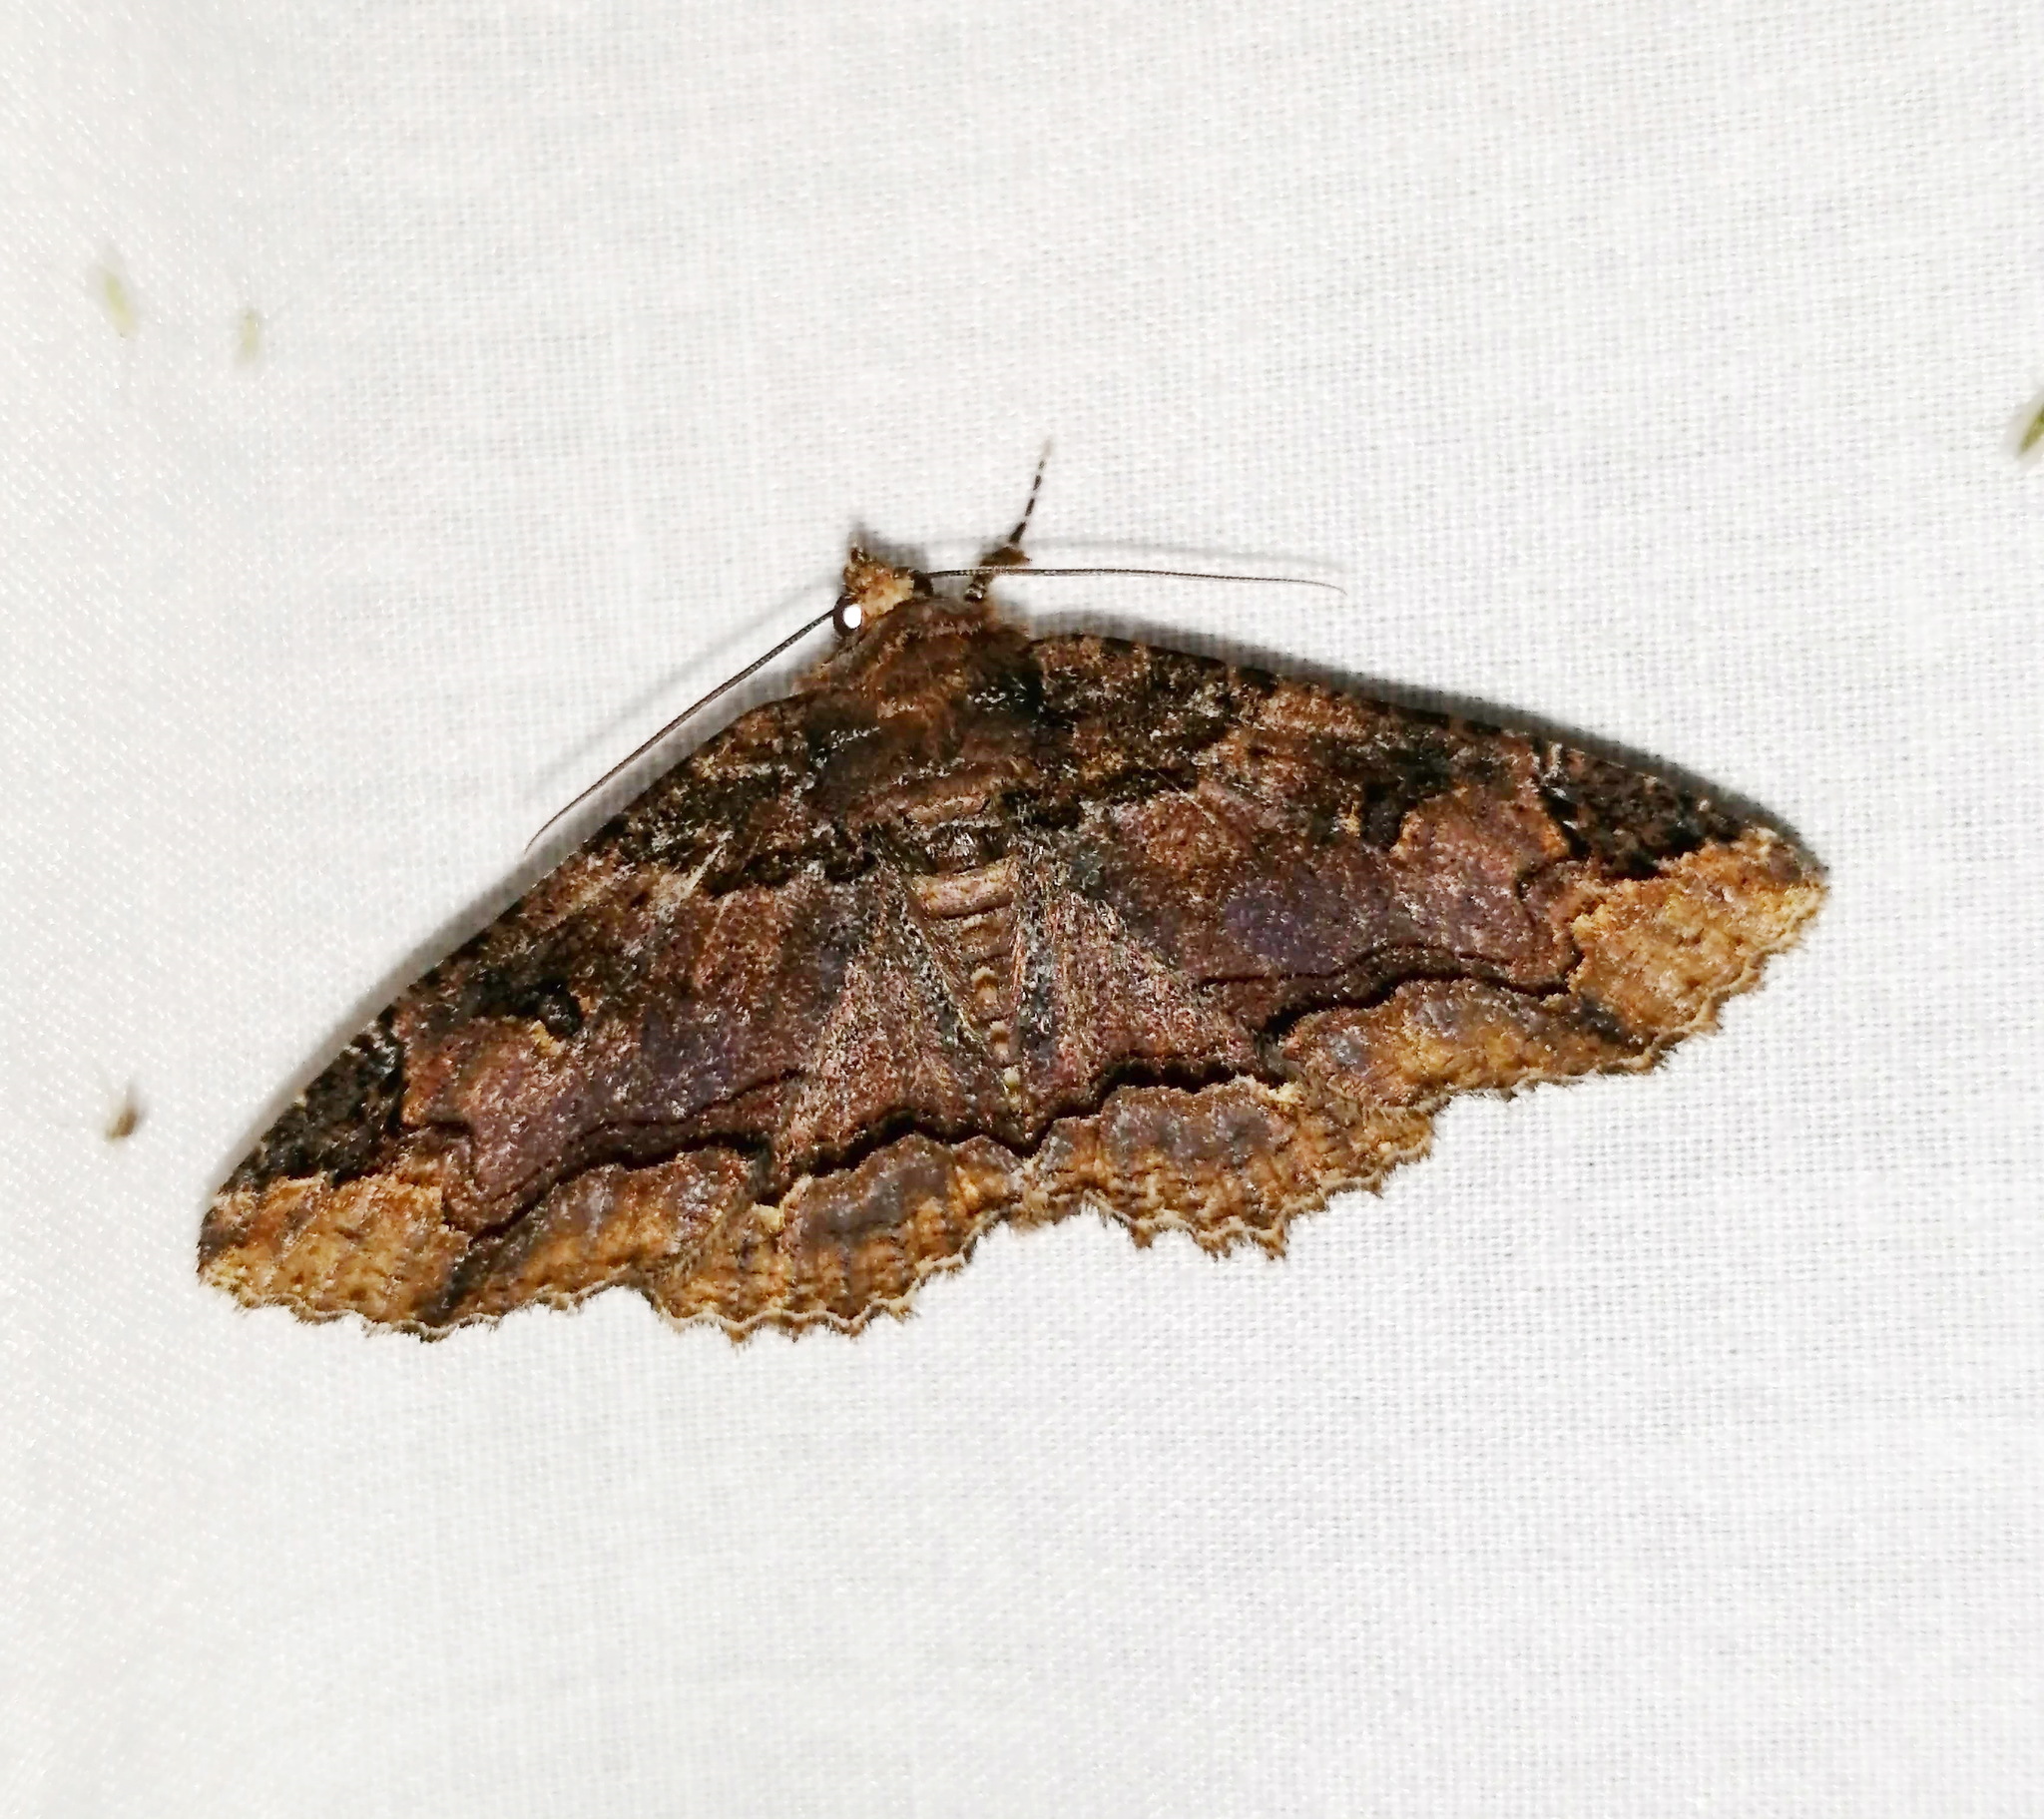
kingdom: Animalia
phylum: Arthropoda
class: Insecta
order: Lepidoptera
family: Erebidae
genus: Zale
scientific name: Zale minerea
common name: Colorful zale moth
